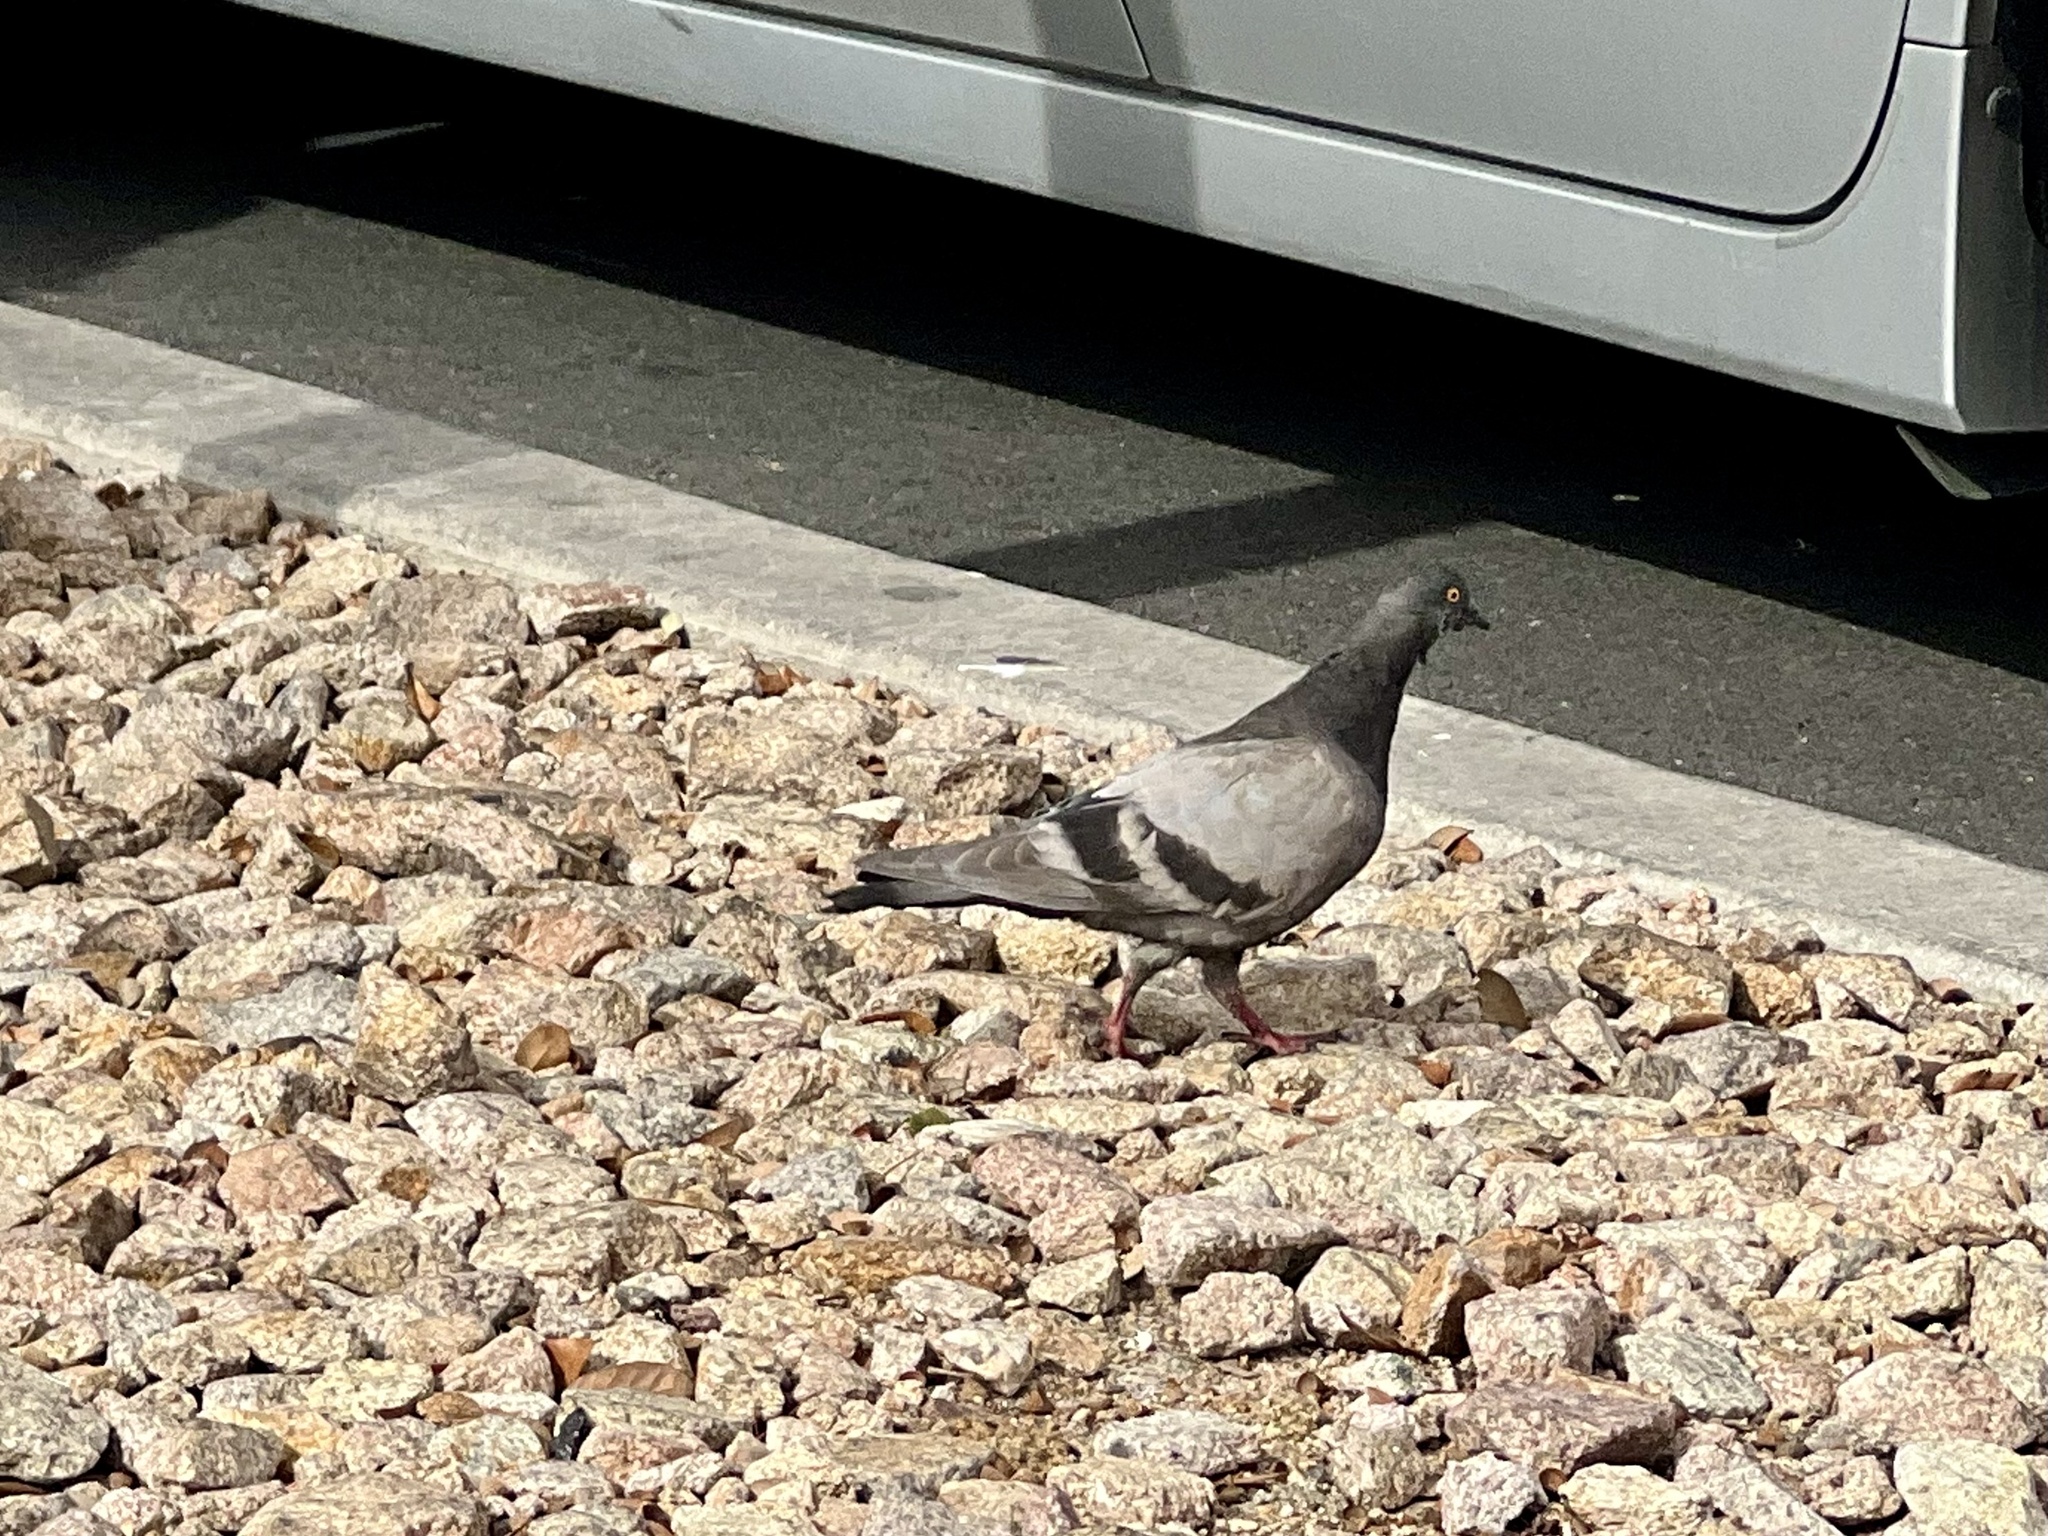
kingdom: Animalia
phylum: Chordata
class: Aves
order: Columbiformes
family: Columbidae
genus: Columba
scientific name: Columba livia
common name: Rock pigeon
